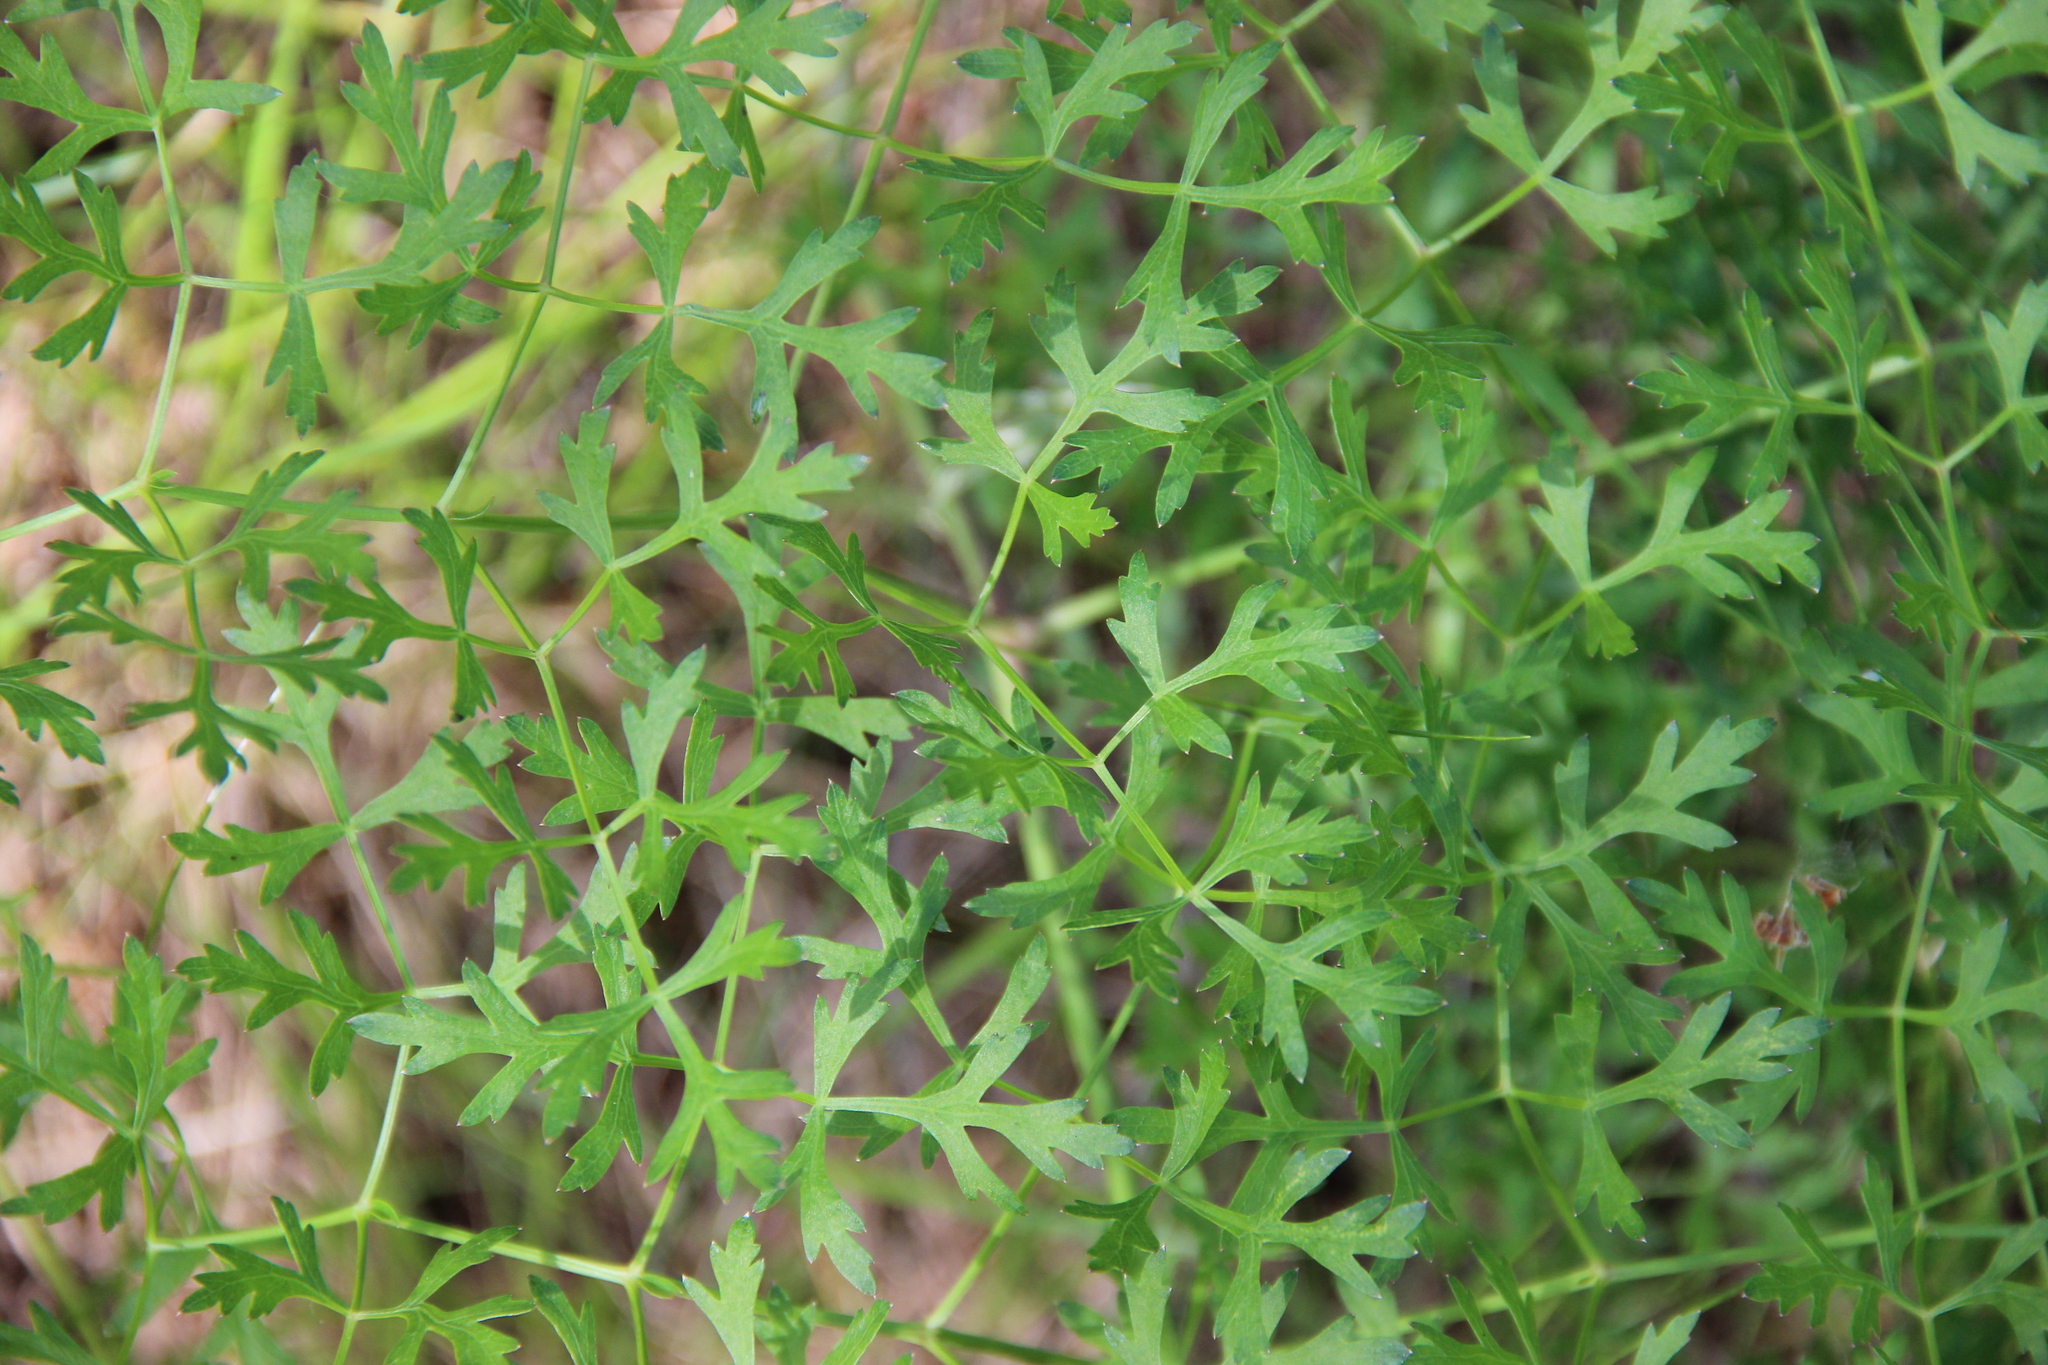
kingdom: Plantae
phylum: Tracheophyta
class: Magnoliopsida
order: Apiales
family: Apiaceae
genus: Oreoselinum
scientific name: Oreoselinum nigrum
